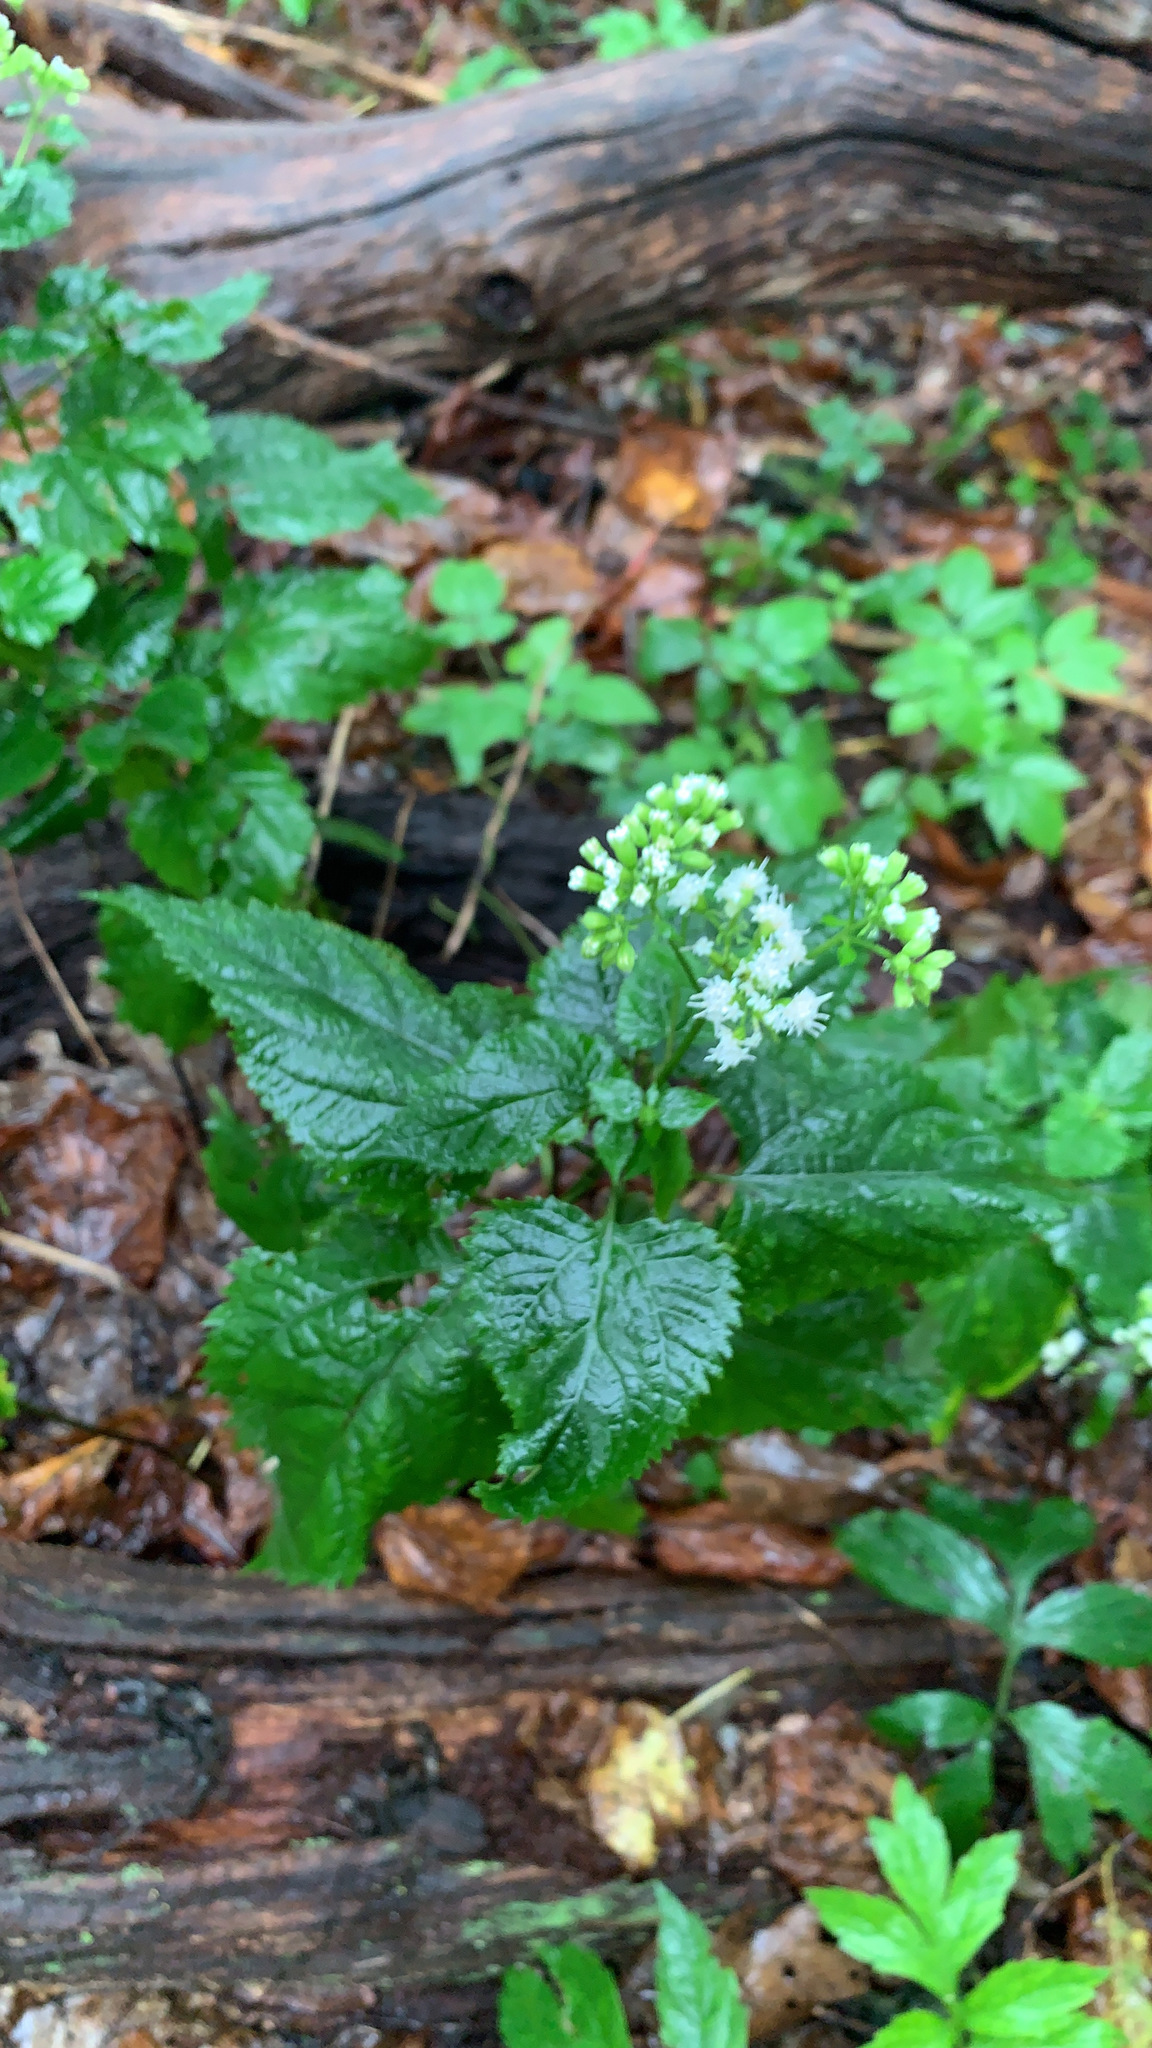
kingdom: Plantae
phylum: Tracheophyta
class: Magnoliopsida
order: Asterales
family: Asteraceae
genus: Ageratina
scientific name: Ageratina altissima
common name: White snakeroot
